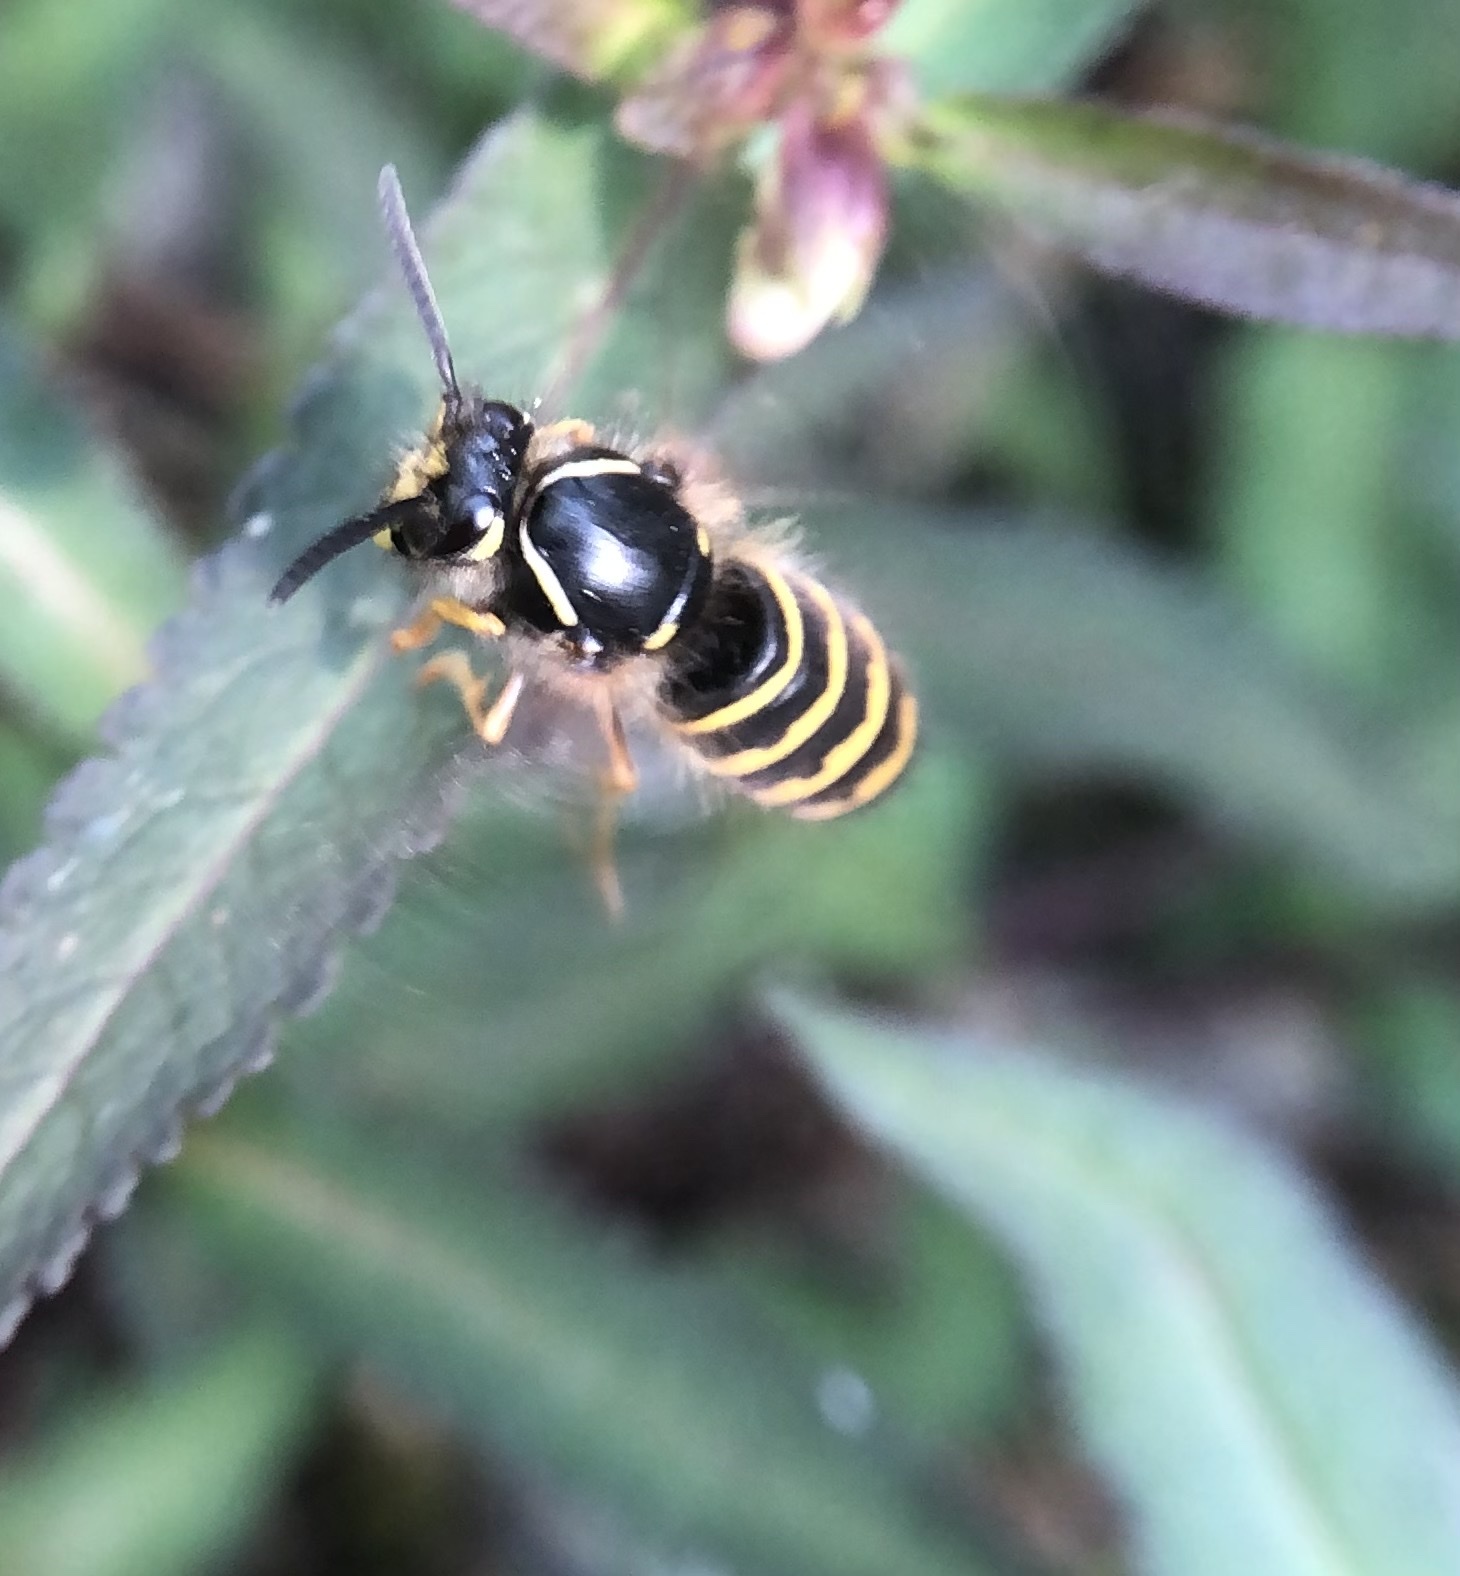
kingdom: Animalia
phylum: Arthropoda
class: Insecta
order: Hymenoptera
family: Vespidae
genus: Dolichovespula
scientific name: Dolichovespula
